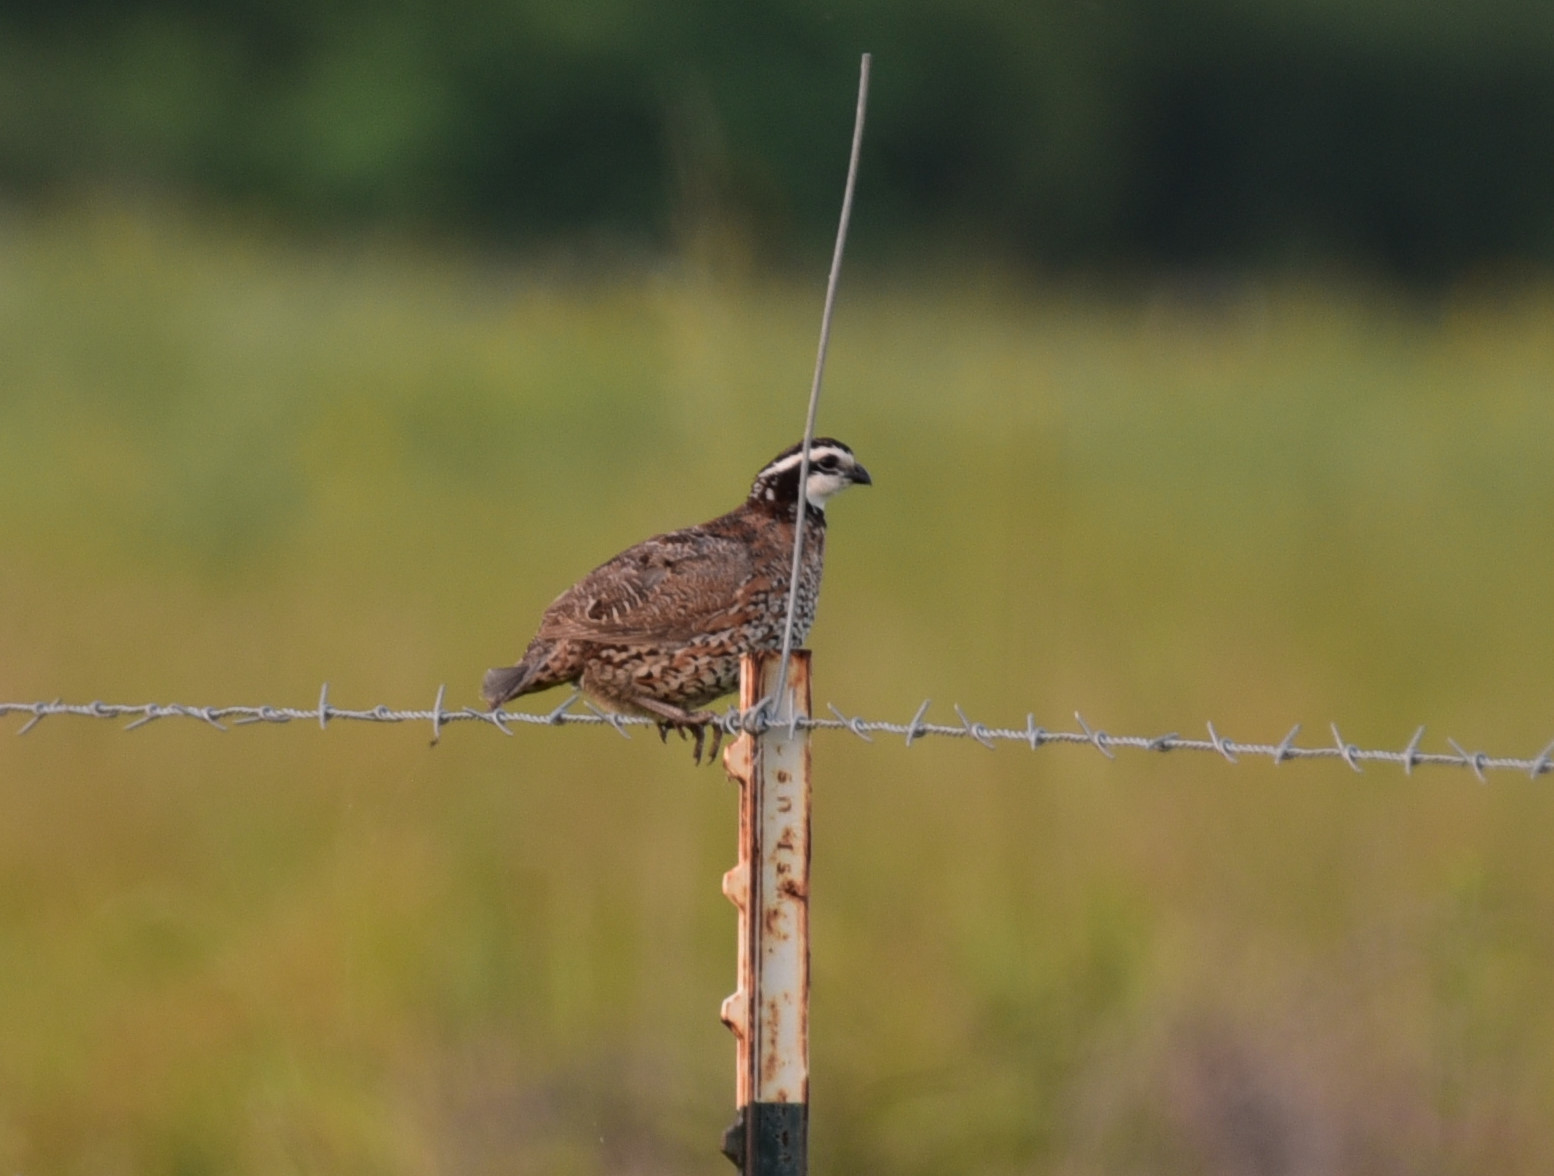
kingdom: Animalia
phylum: Chordata
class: Aves
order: Galliformes
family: Odontophoridae
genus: Colinus
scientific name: Colinus virginianus
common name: Northern bobwhite
